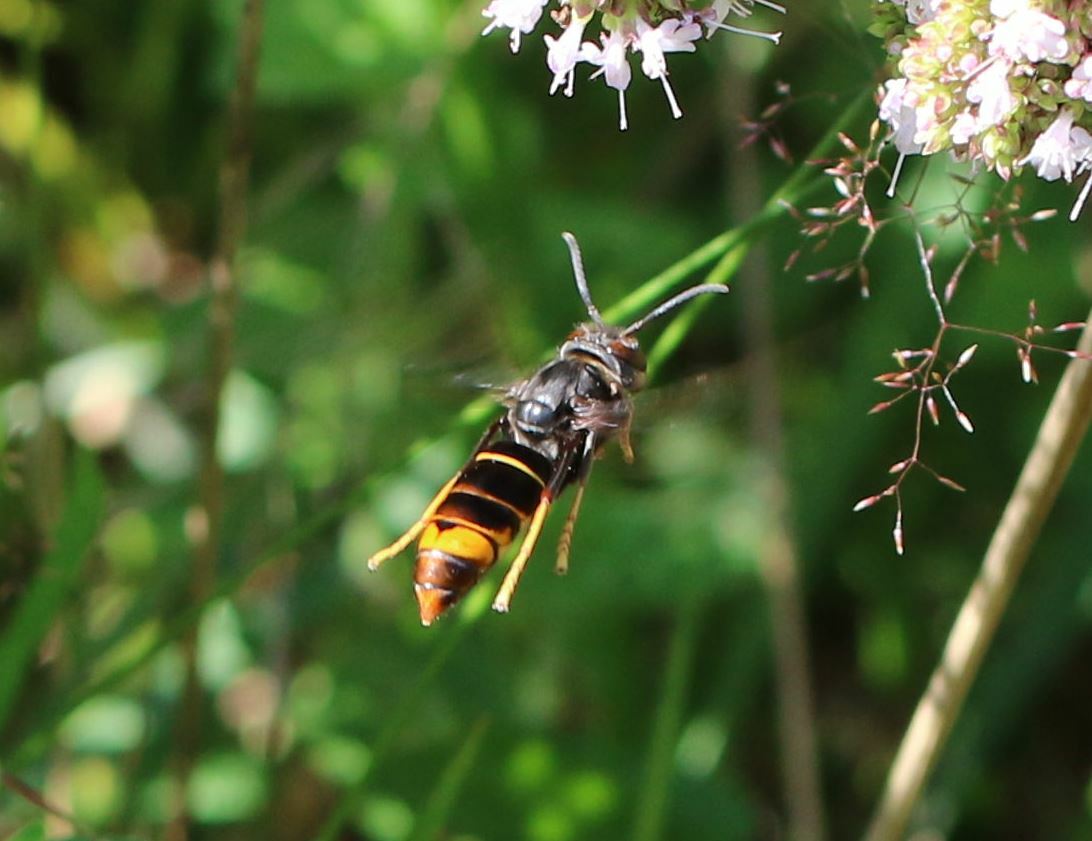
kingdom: Animalia
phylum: Arthropoda
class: Insecta
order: Hymenoptera
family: Vespidae
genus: Vespa
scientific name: Vespa velutina
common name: Asian hornet
